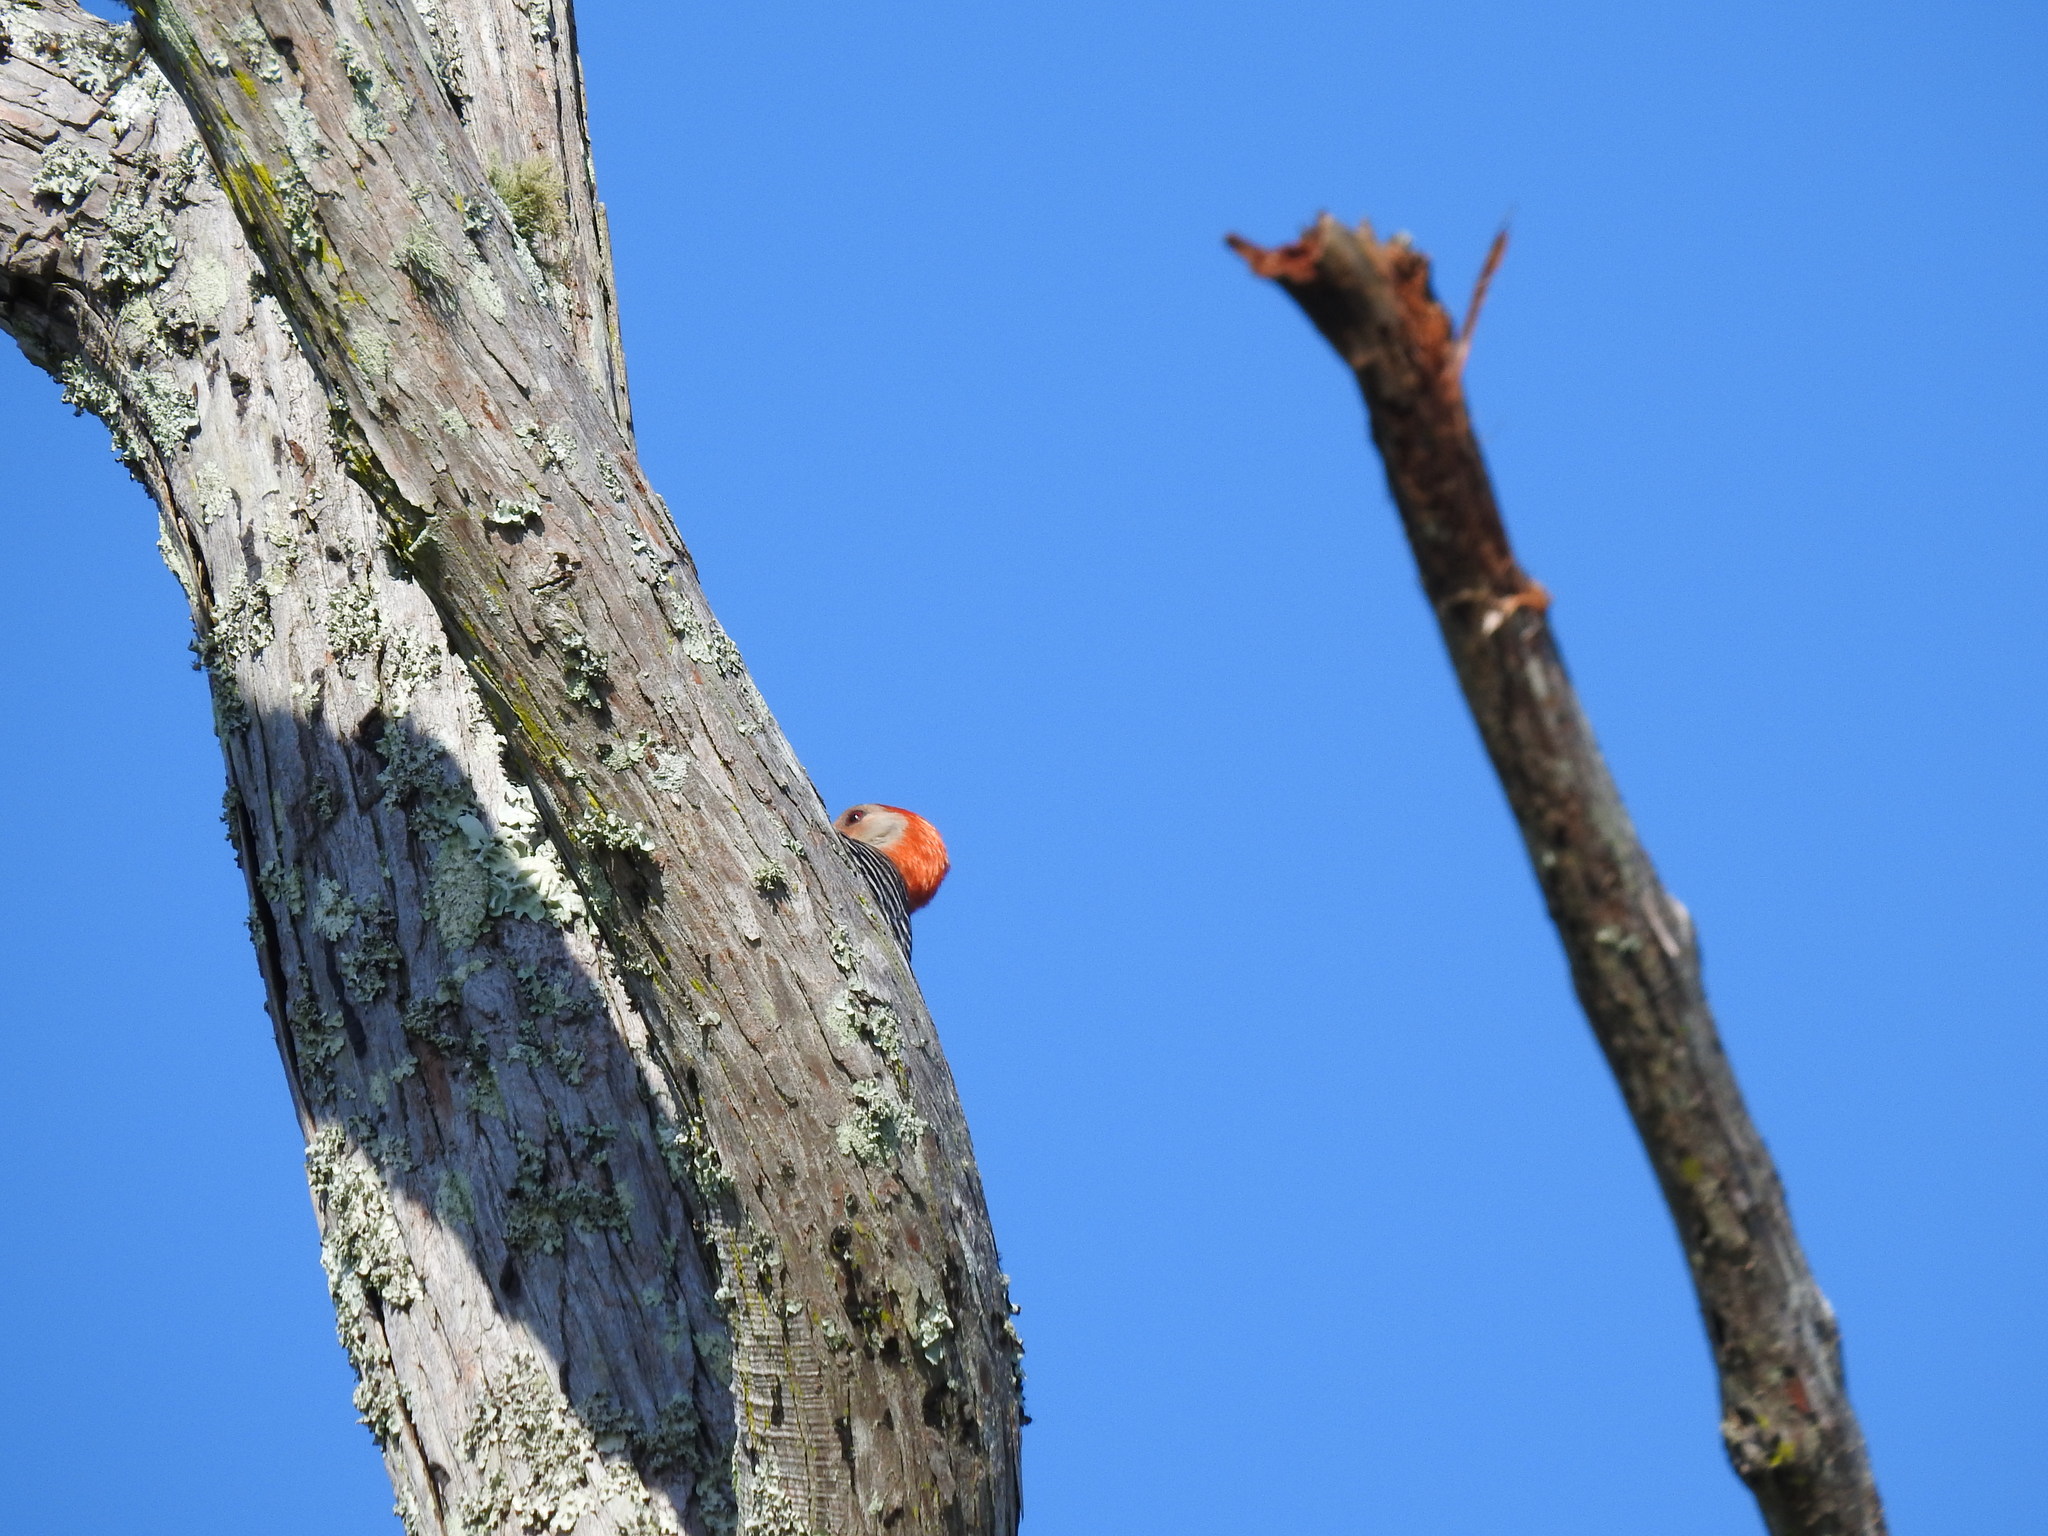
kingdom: Animalia
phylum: Chordata
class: Aves
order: Piciformes
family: Picidae
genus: Melanerpes
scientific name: Melanerpes carolinus
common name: Red-bellied woodpecker
